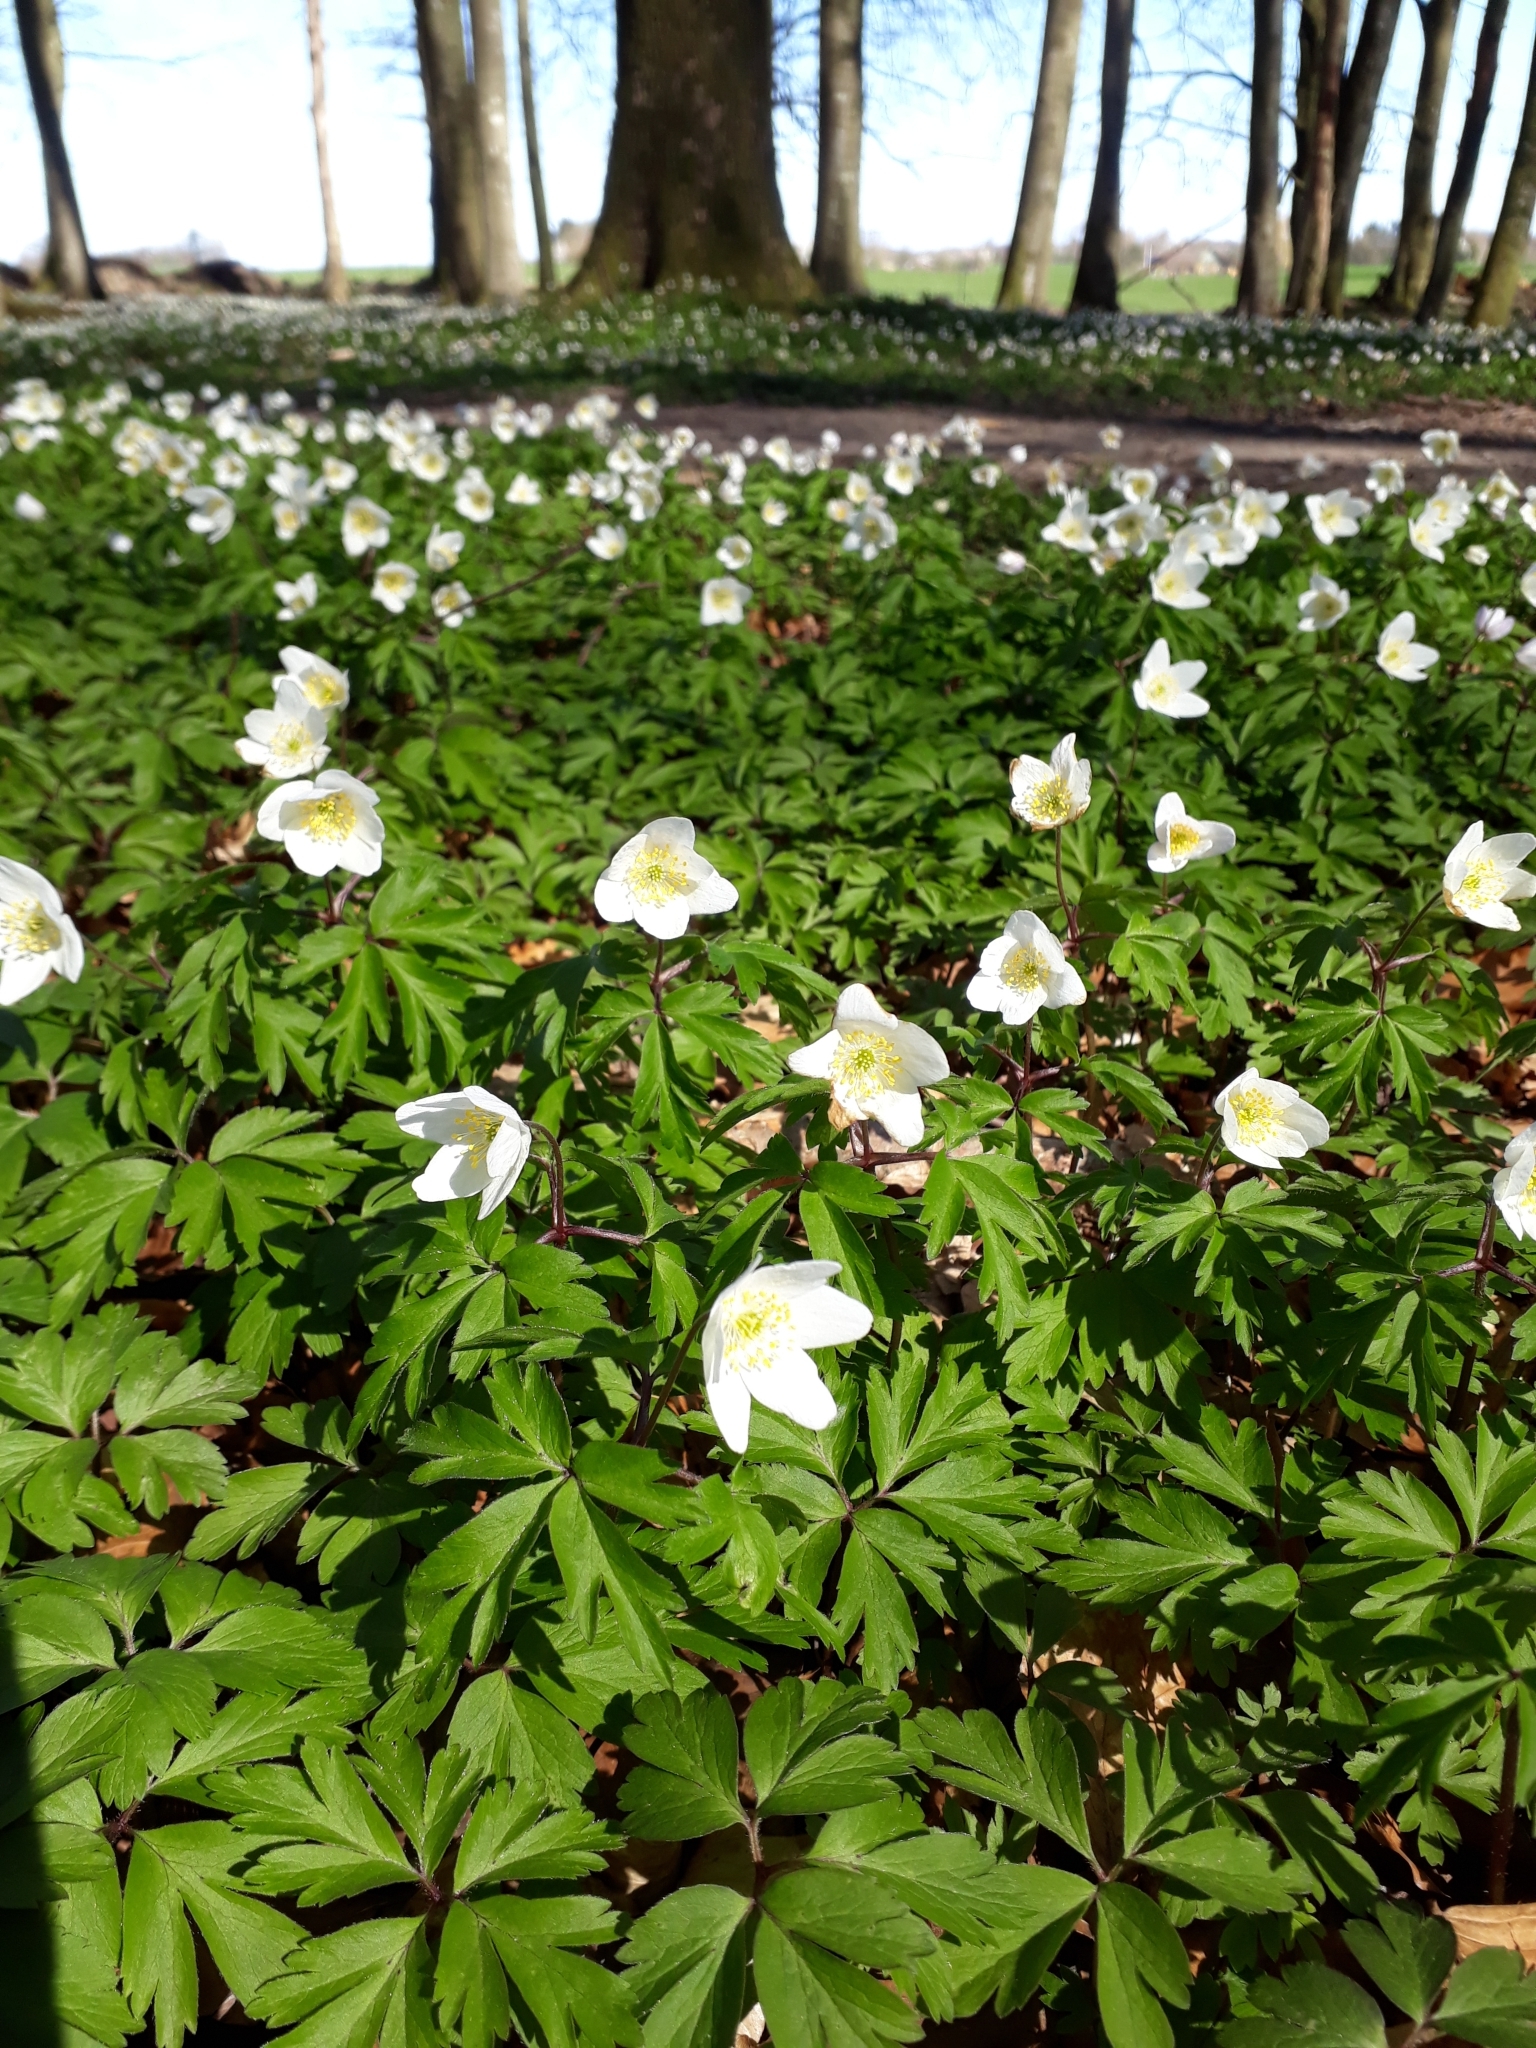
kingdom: Plantae
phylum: Tracheophyta
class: Magnoliopsida
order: Ranunculales
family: Ranunculaceae
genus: Anemone
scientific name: Anemone nemorosa
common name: Wood anemone
